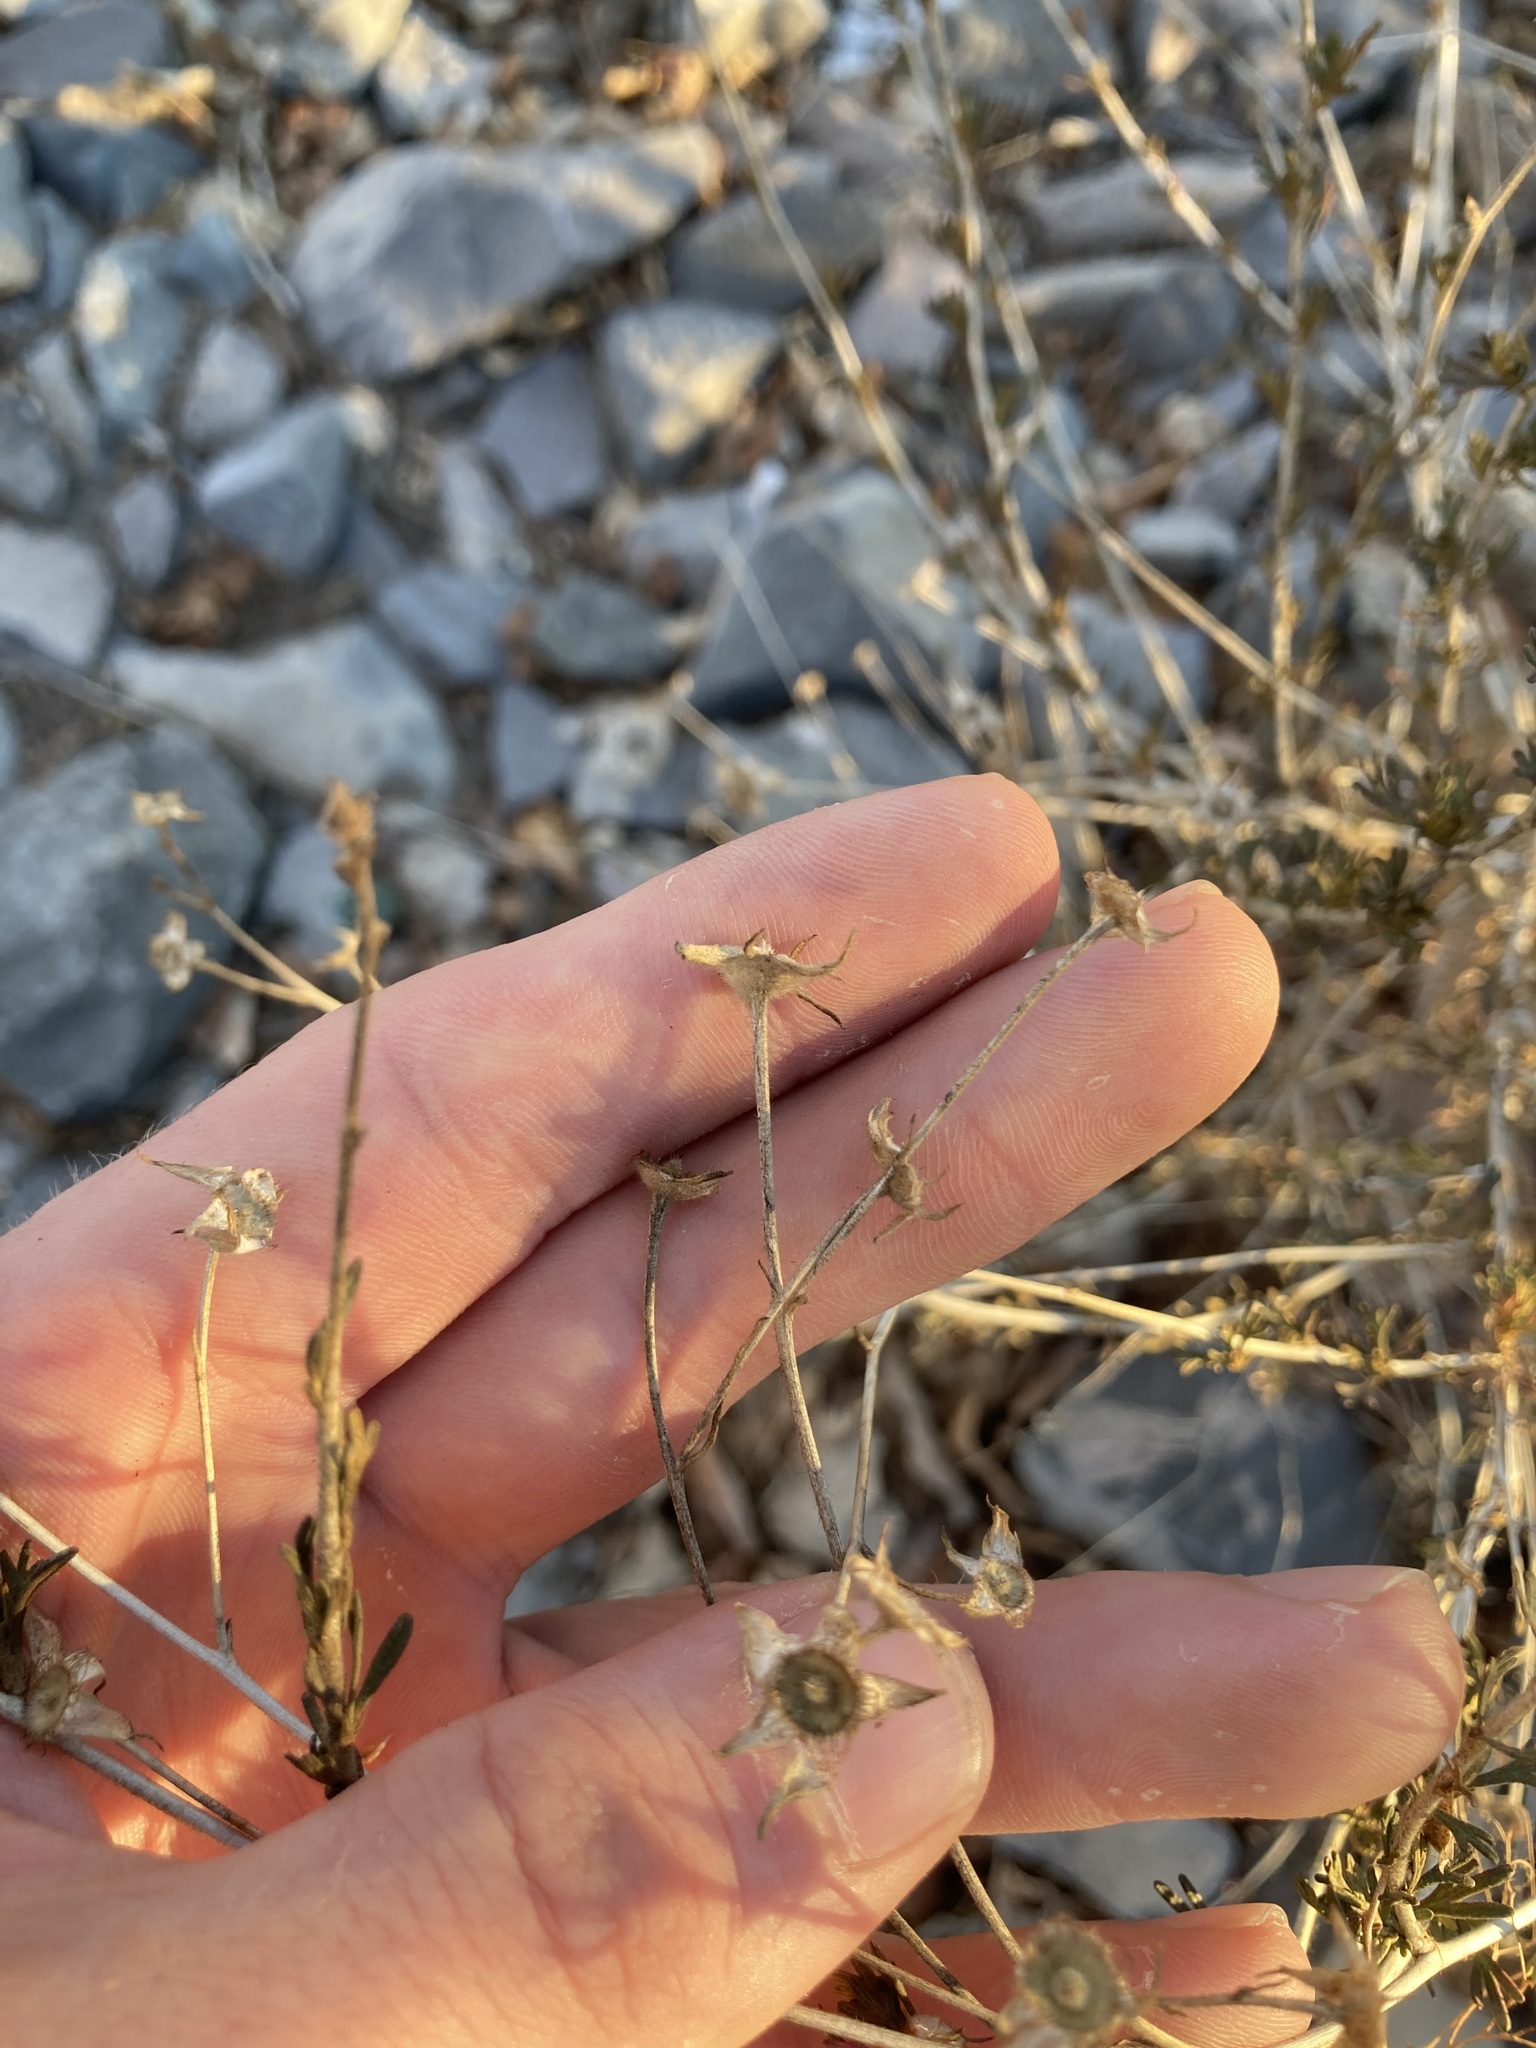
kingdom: Plantae
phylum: Tracheophyta
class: Magnoliopsida
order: Rosales
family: Rosaceae
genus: Fallugia
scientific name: Fallugia paradoxa
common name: Apache-plume
